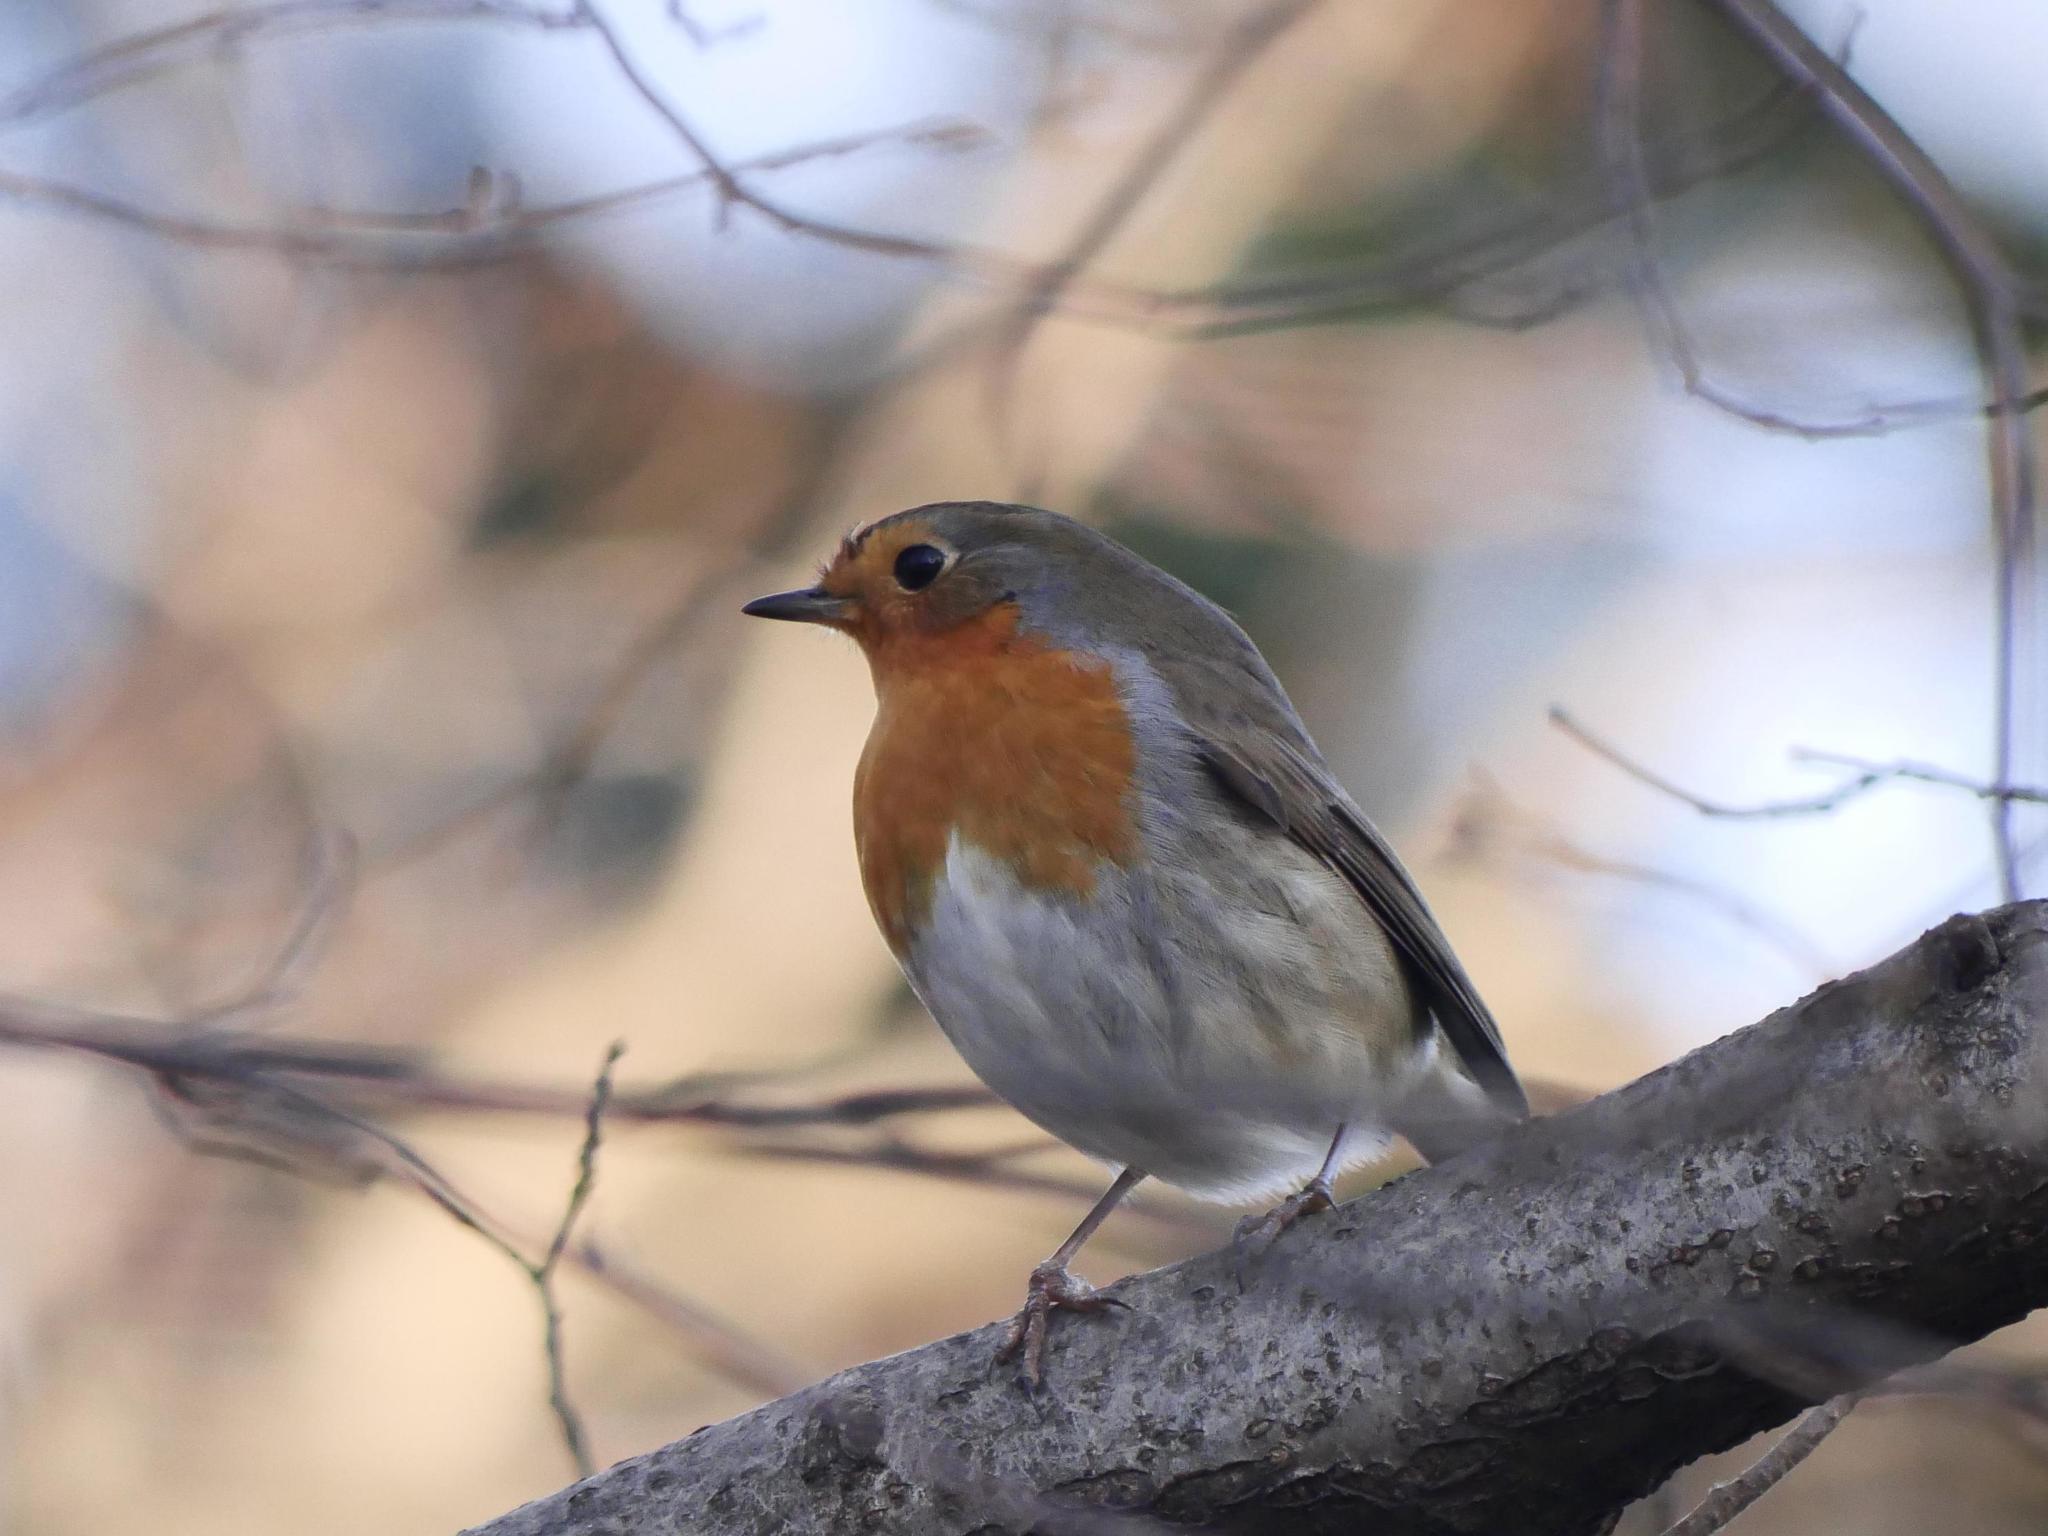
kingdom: Animalia
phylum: Chordata
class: Aves
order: Passeriformes
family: Muscicapidae
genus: Erithacus
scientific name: Erithacus rubecula
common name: European robin
